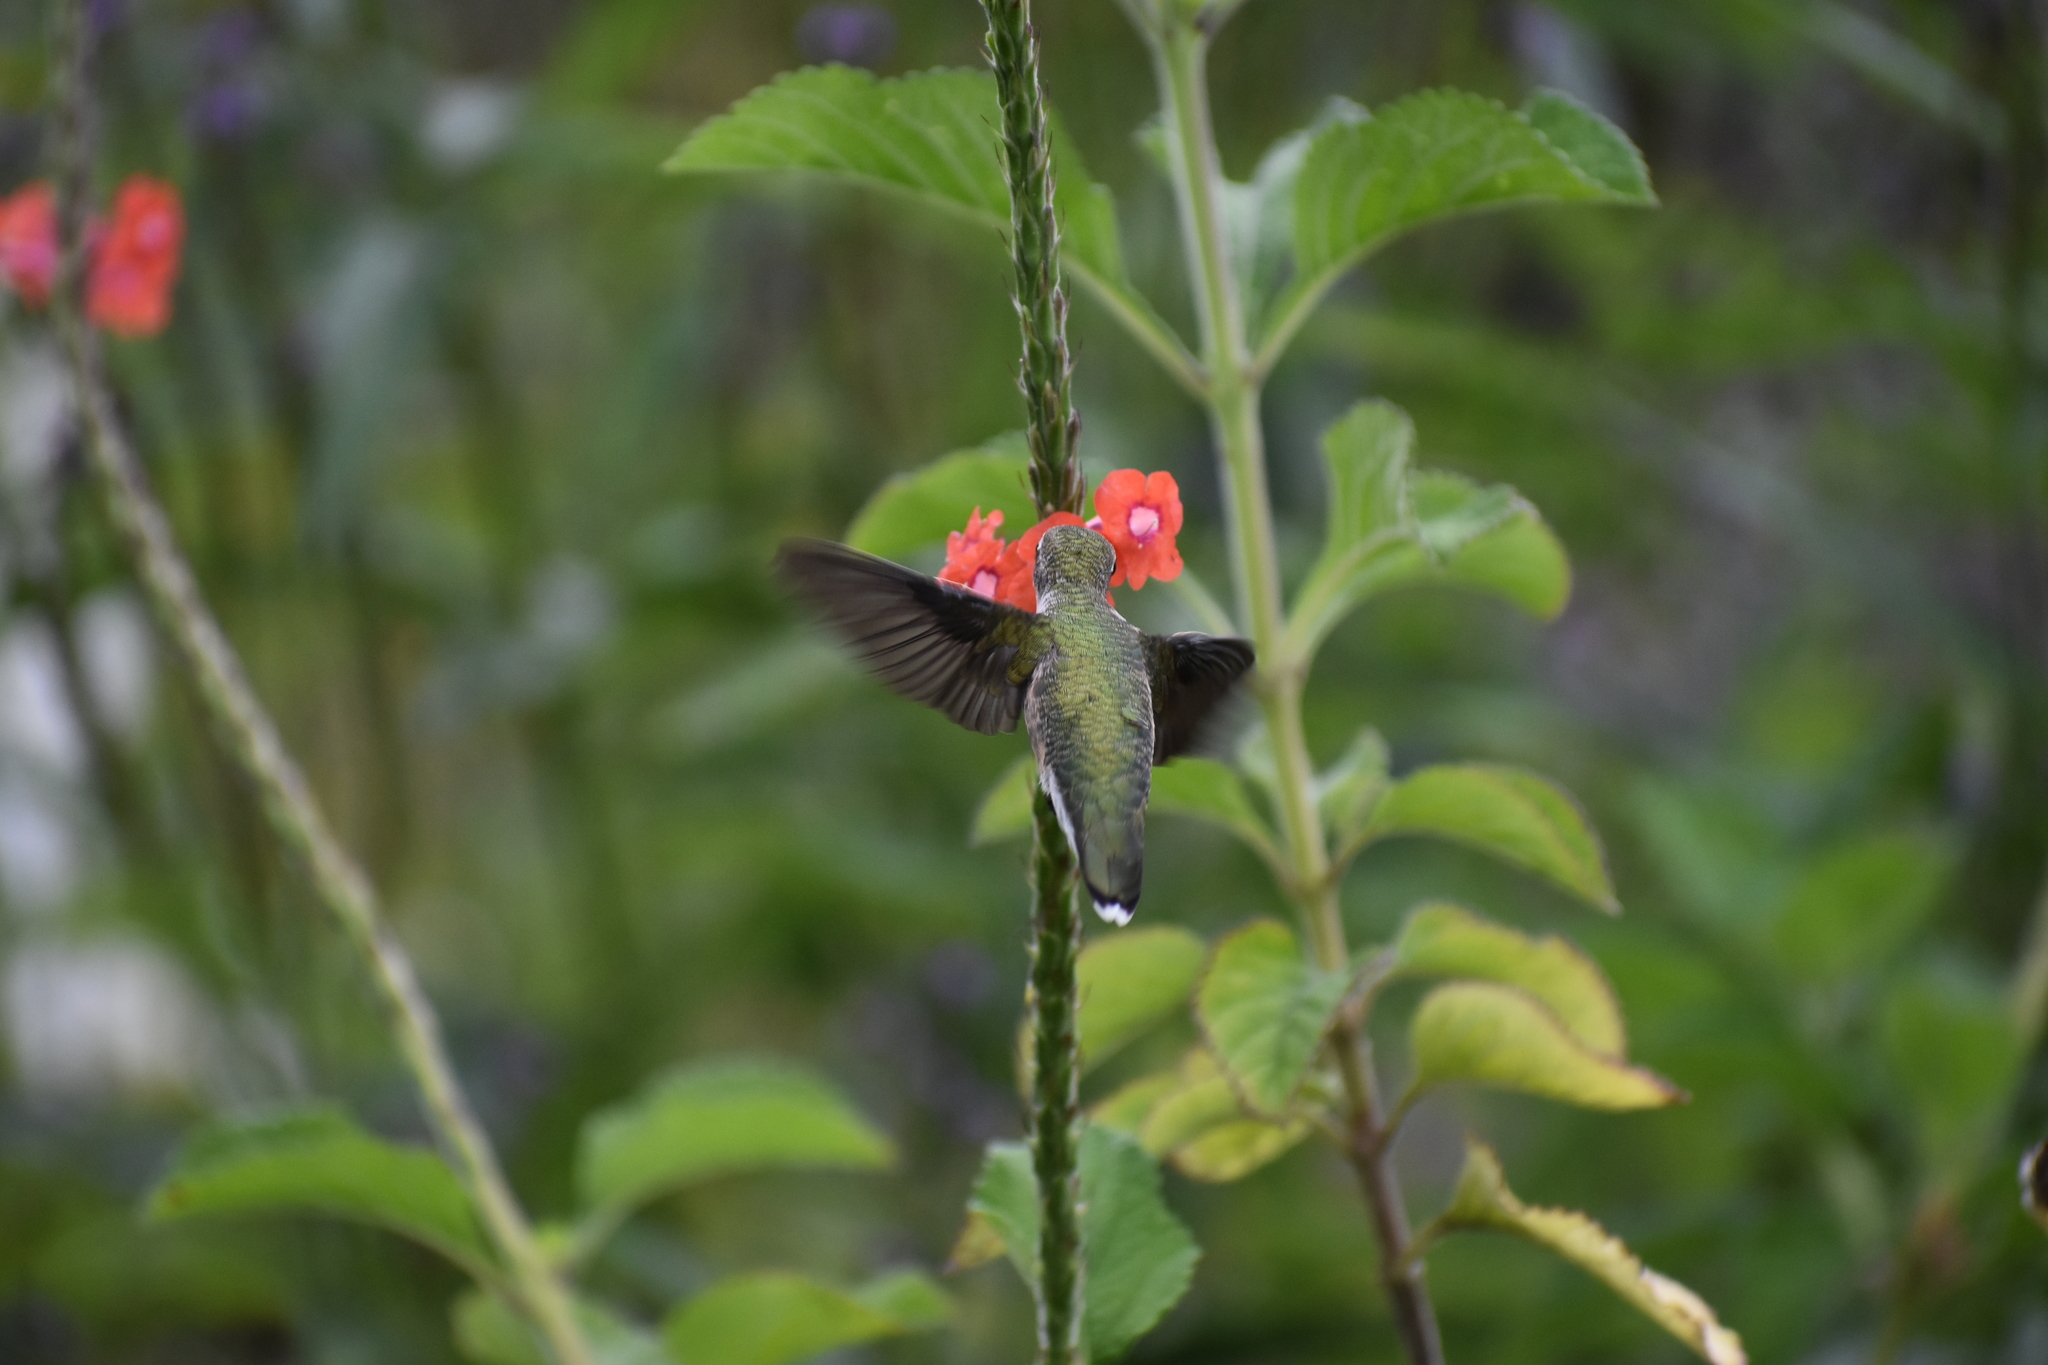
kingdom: Animalia
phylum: Chordata
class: Aves
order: Apodiformes
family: Trochilidae
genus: Archilochus
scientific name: Archilochus colubris
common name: Ruby-throated hummingbird
